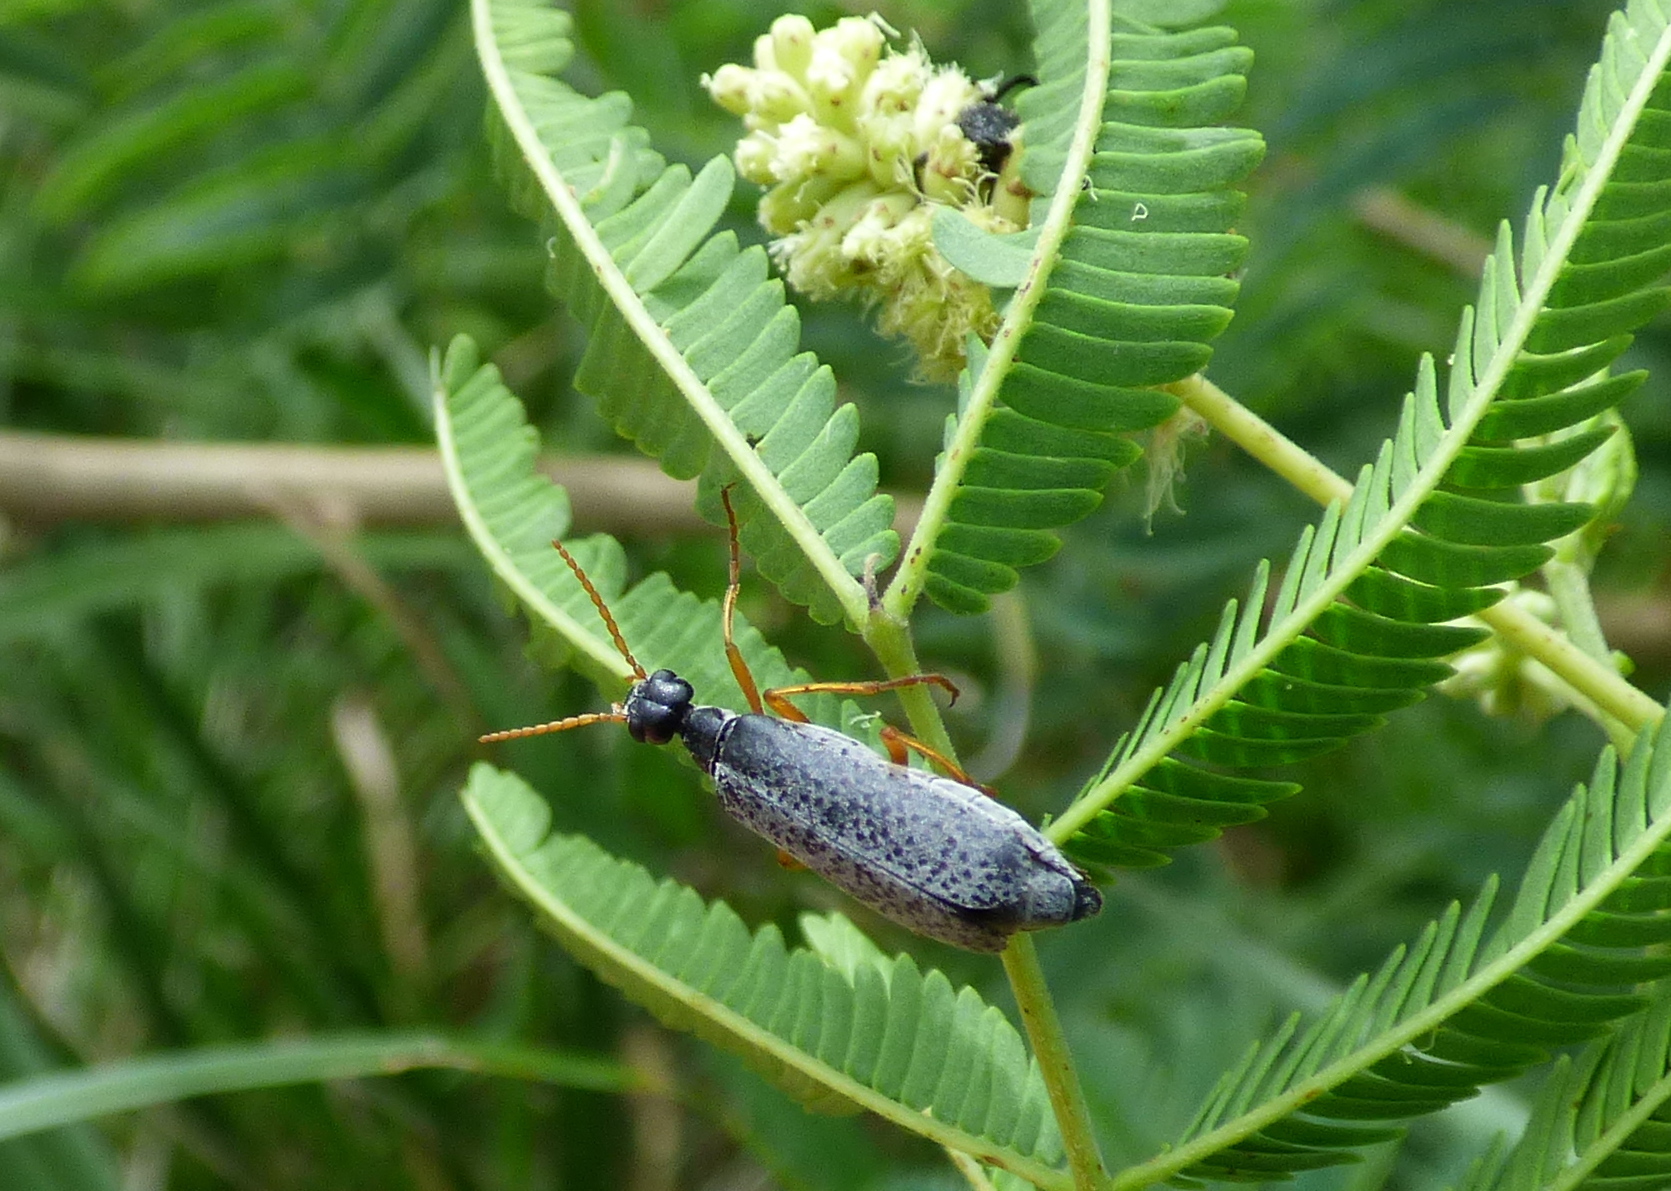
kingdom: Animalia
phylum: Arthropoda
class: Insecta
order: Coleoptera
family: Meloidae
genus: Epicauta
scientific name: Epicauta
